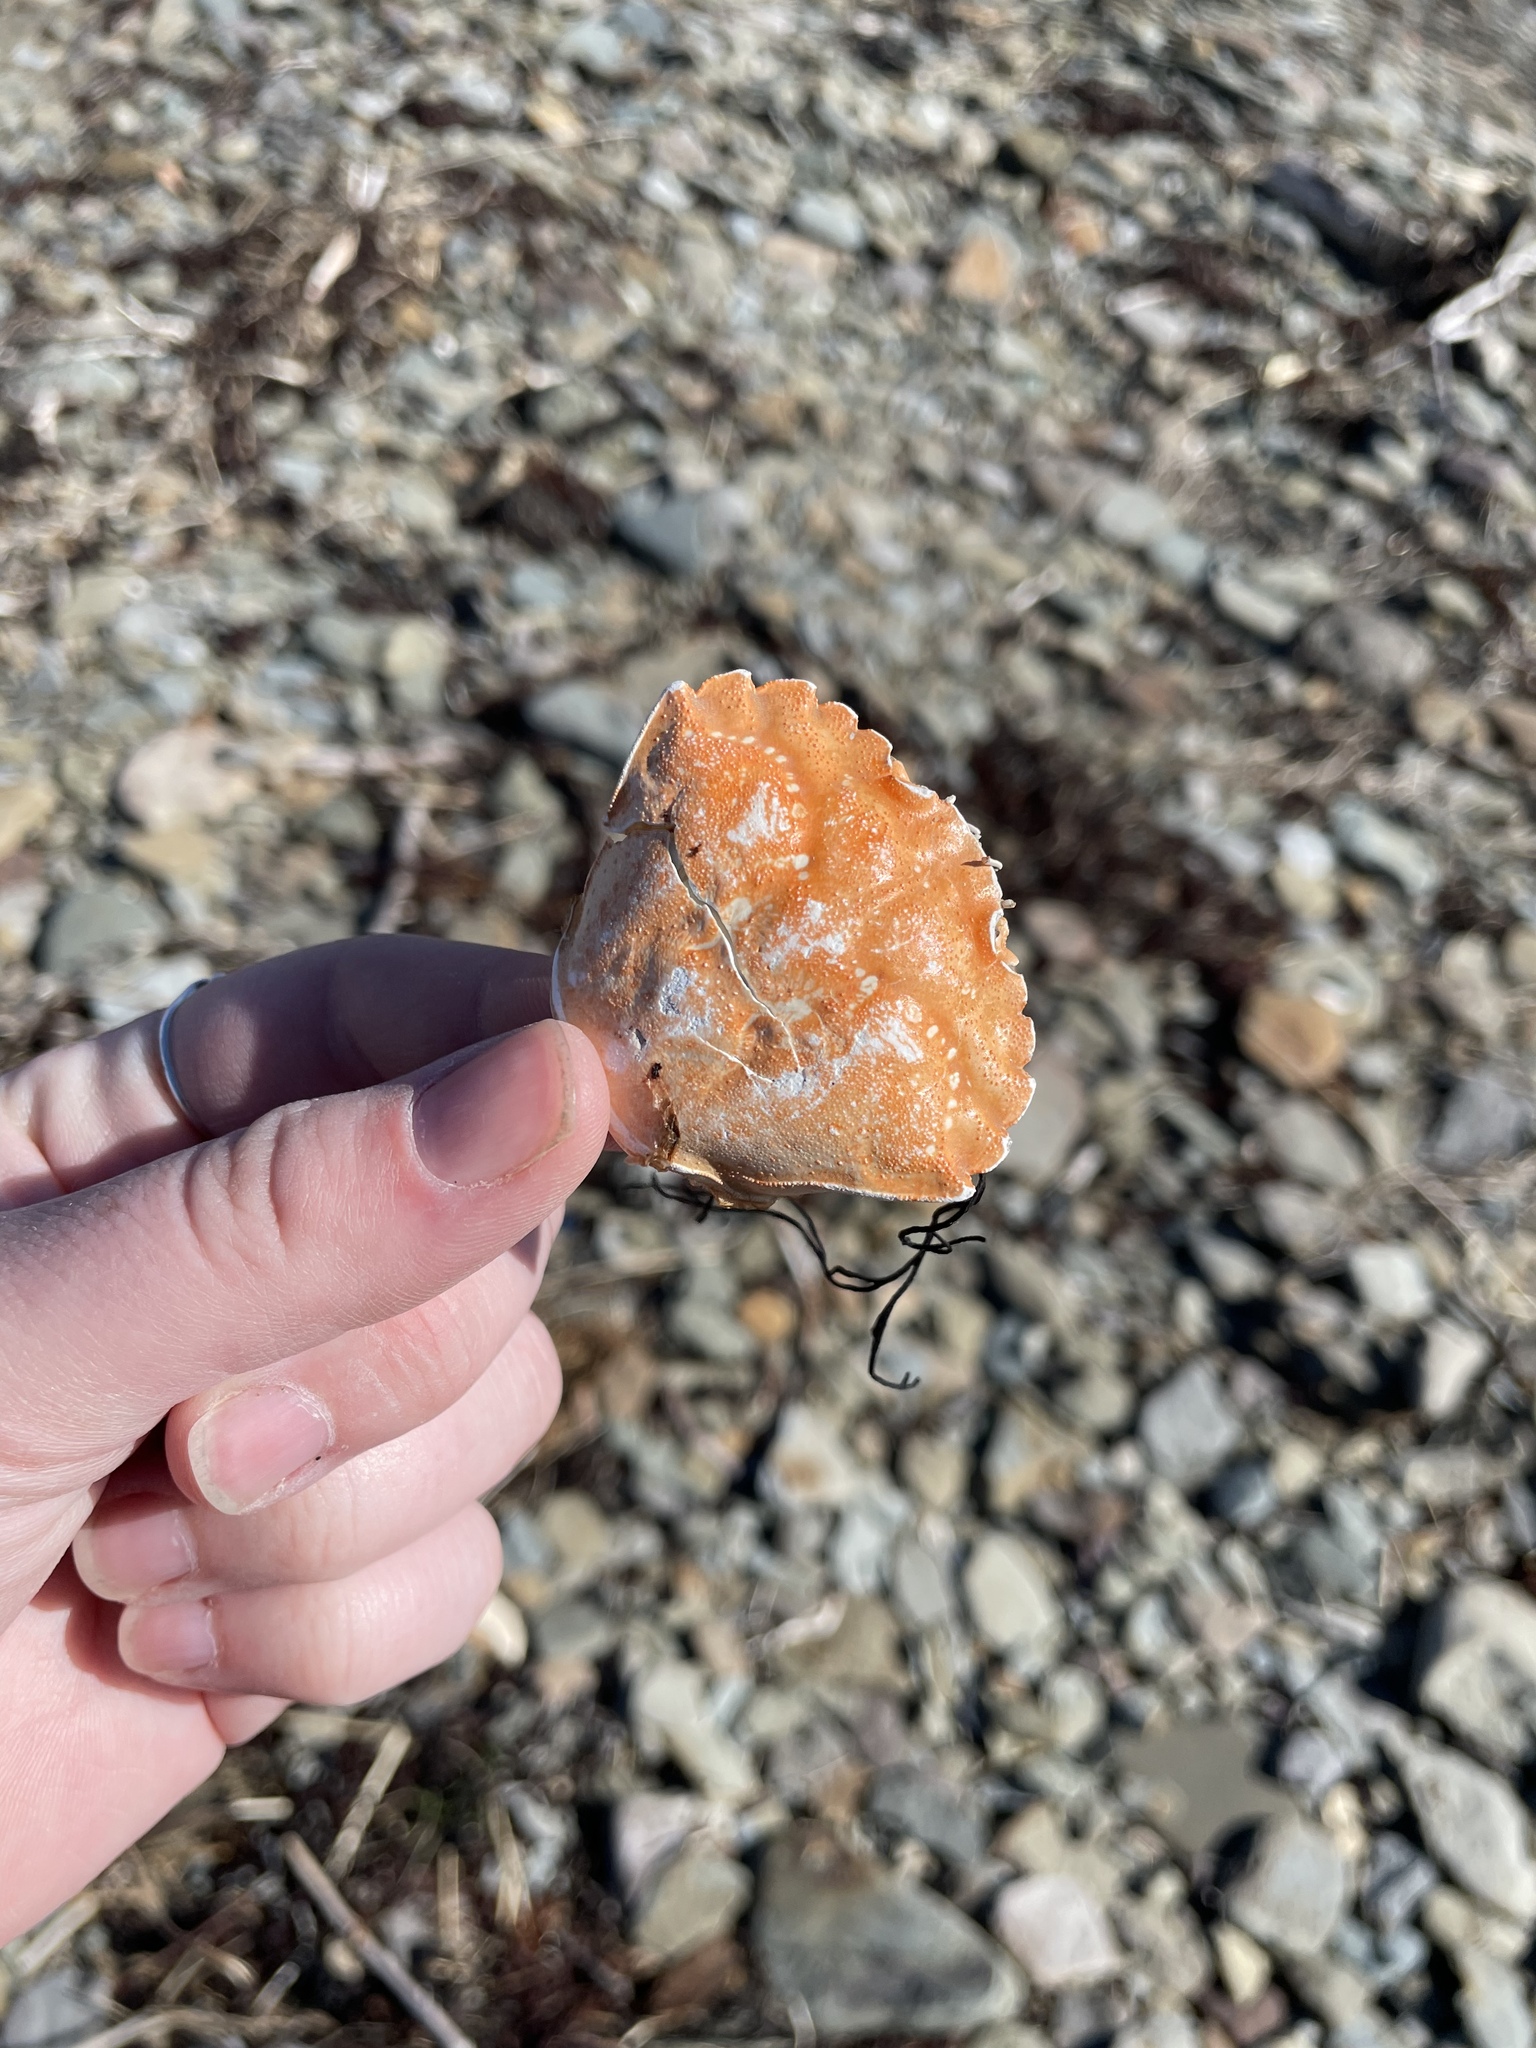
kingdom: Animalia
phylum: Arthropoda
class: Malacostraca
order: Decapoda
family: Carcinidae
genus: Carcinus
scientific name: Carcinus maenas
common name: European green crab
